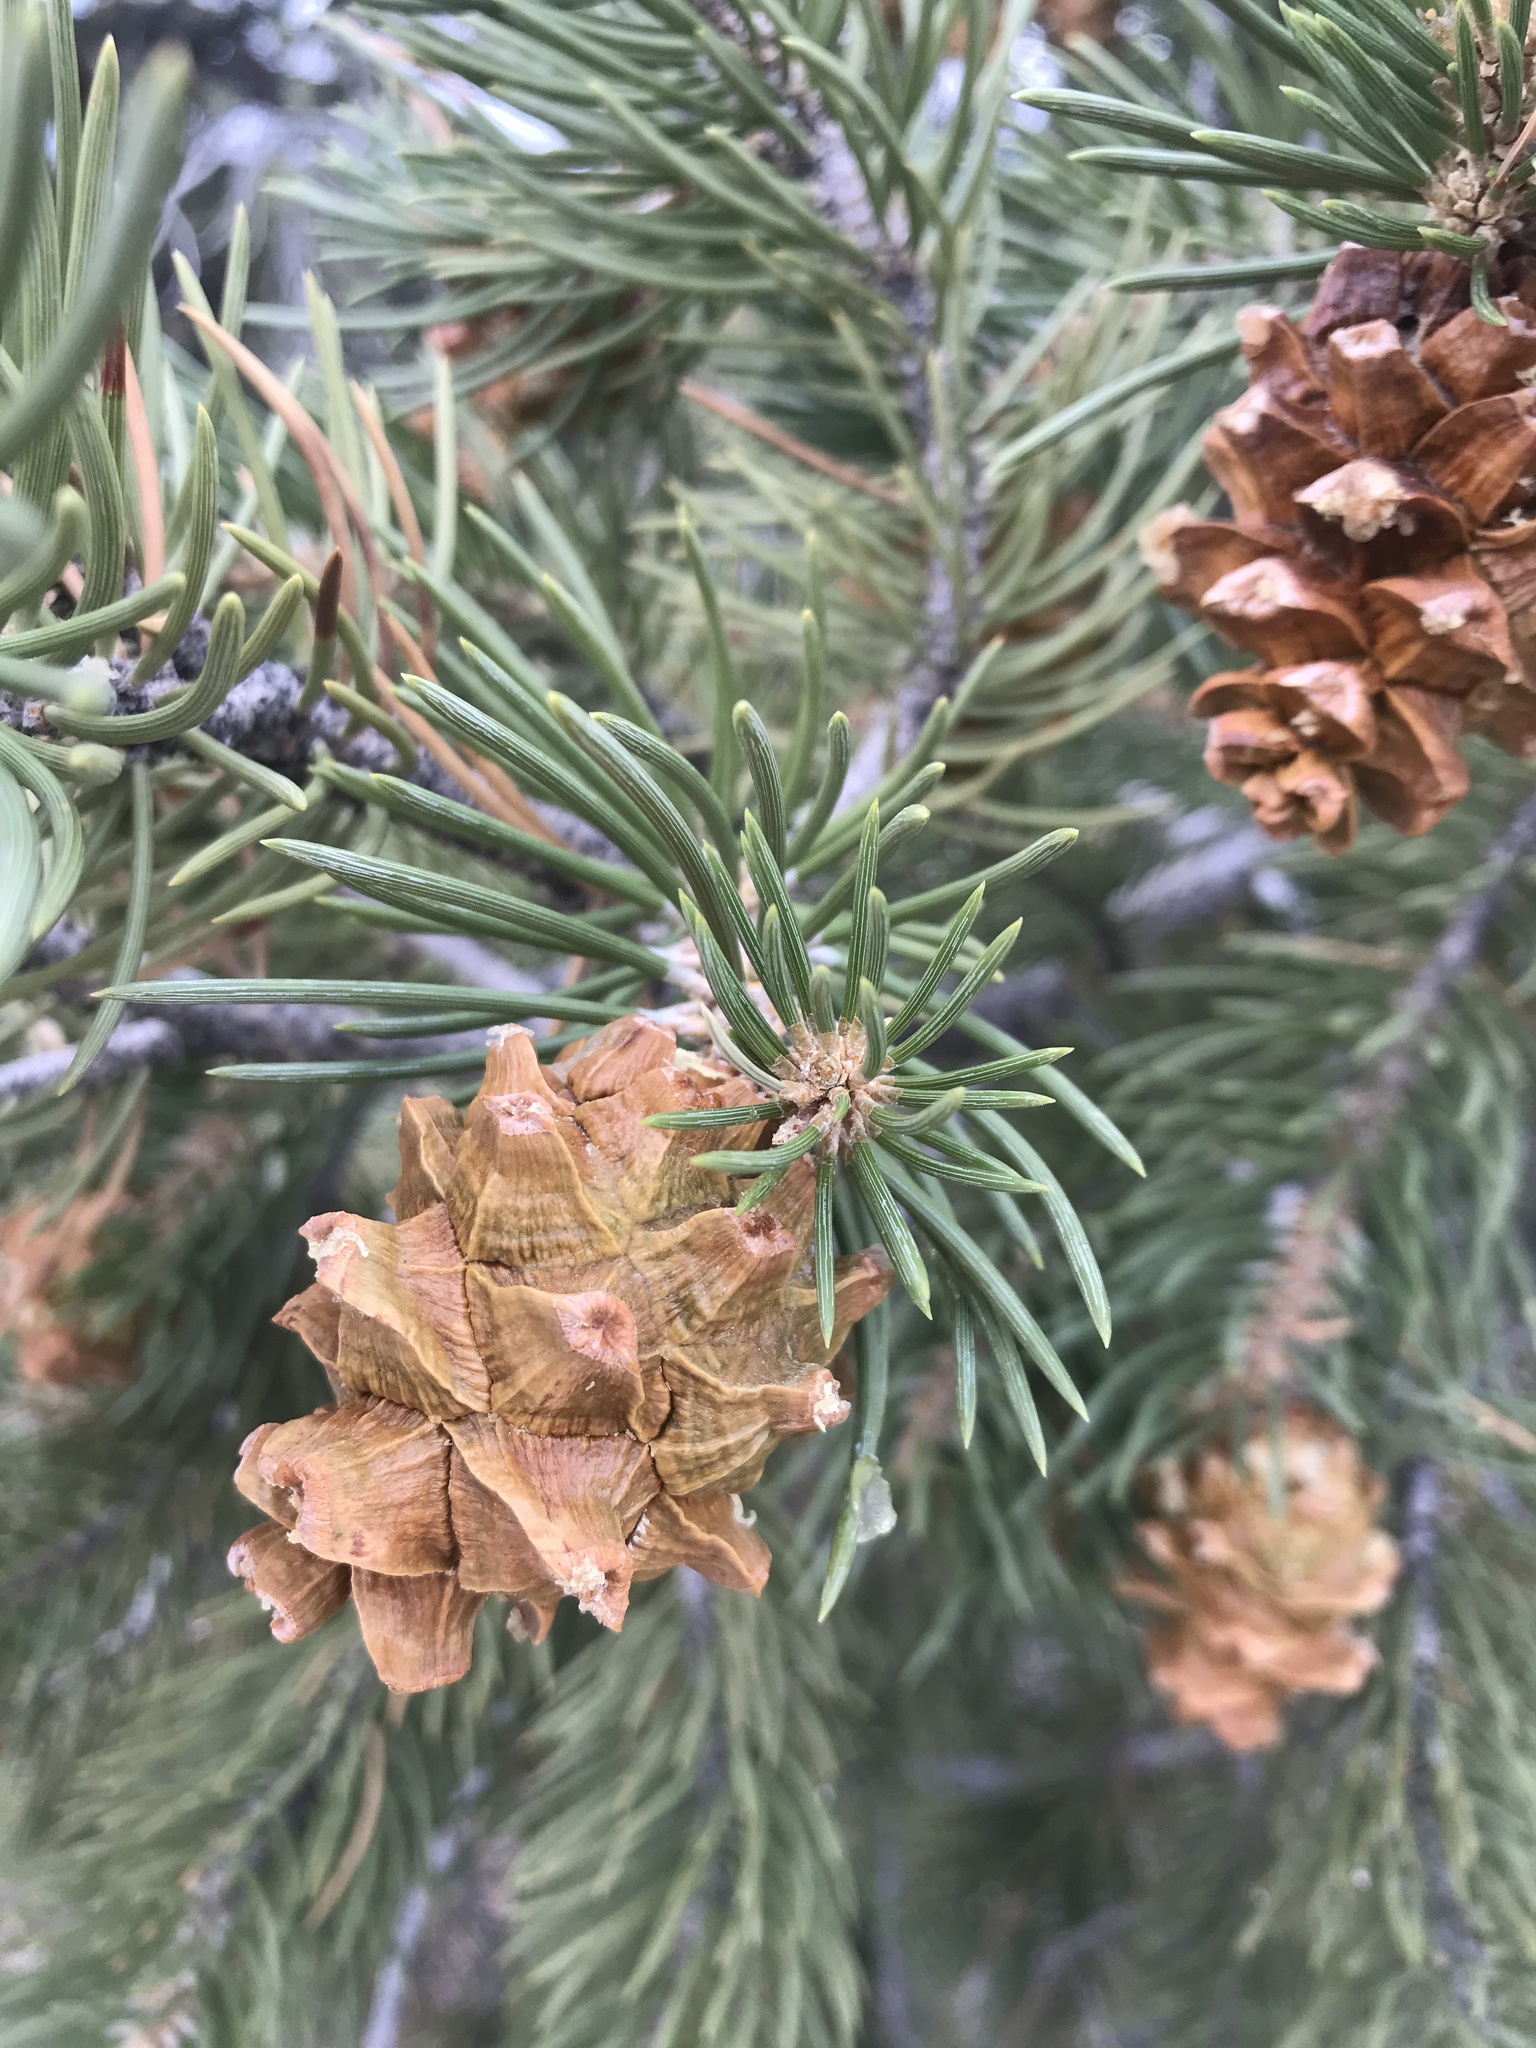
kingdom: Plantae
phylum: Tracheophyta
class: Pinopsida
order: Pinales
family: Pinaceae
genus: Pinus
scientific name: Pinus monophylla
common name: One-leaved nut pine
